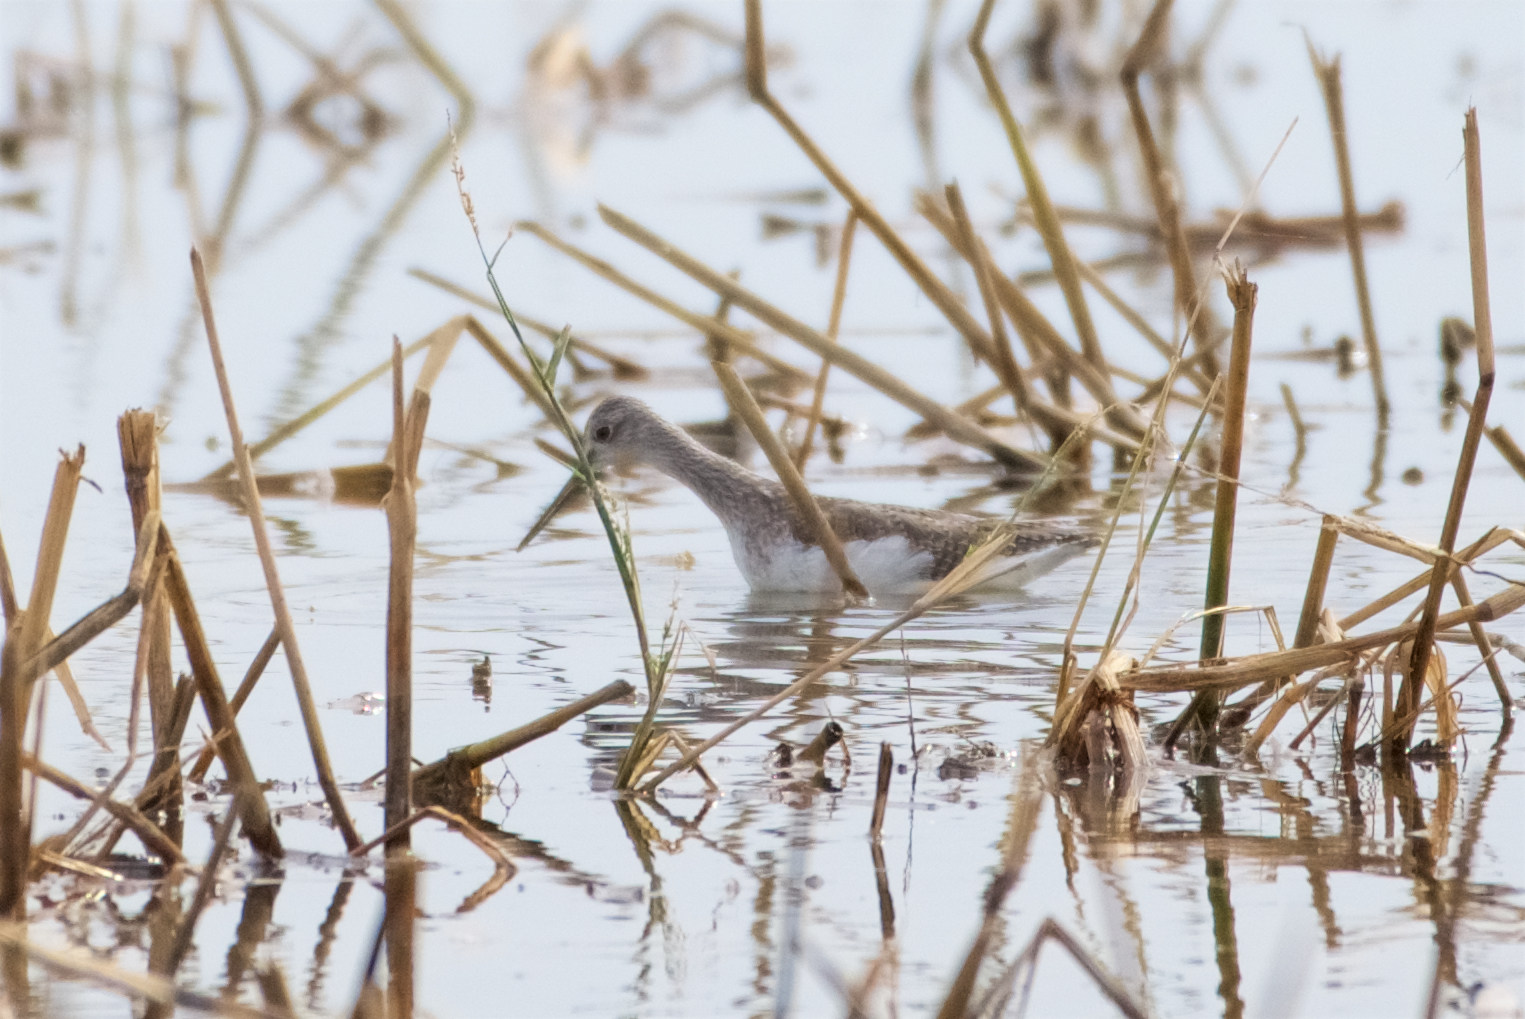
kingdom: Animalia
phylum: Chordata
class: Aves
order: Charadriiformes
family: Scolopacidae
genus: Tringa
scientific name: Tringa melanoleuca
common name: Greater yellowlegs
